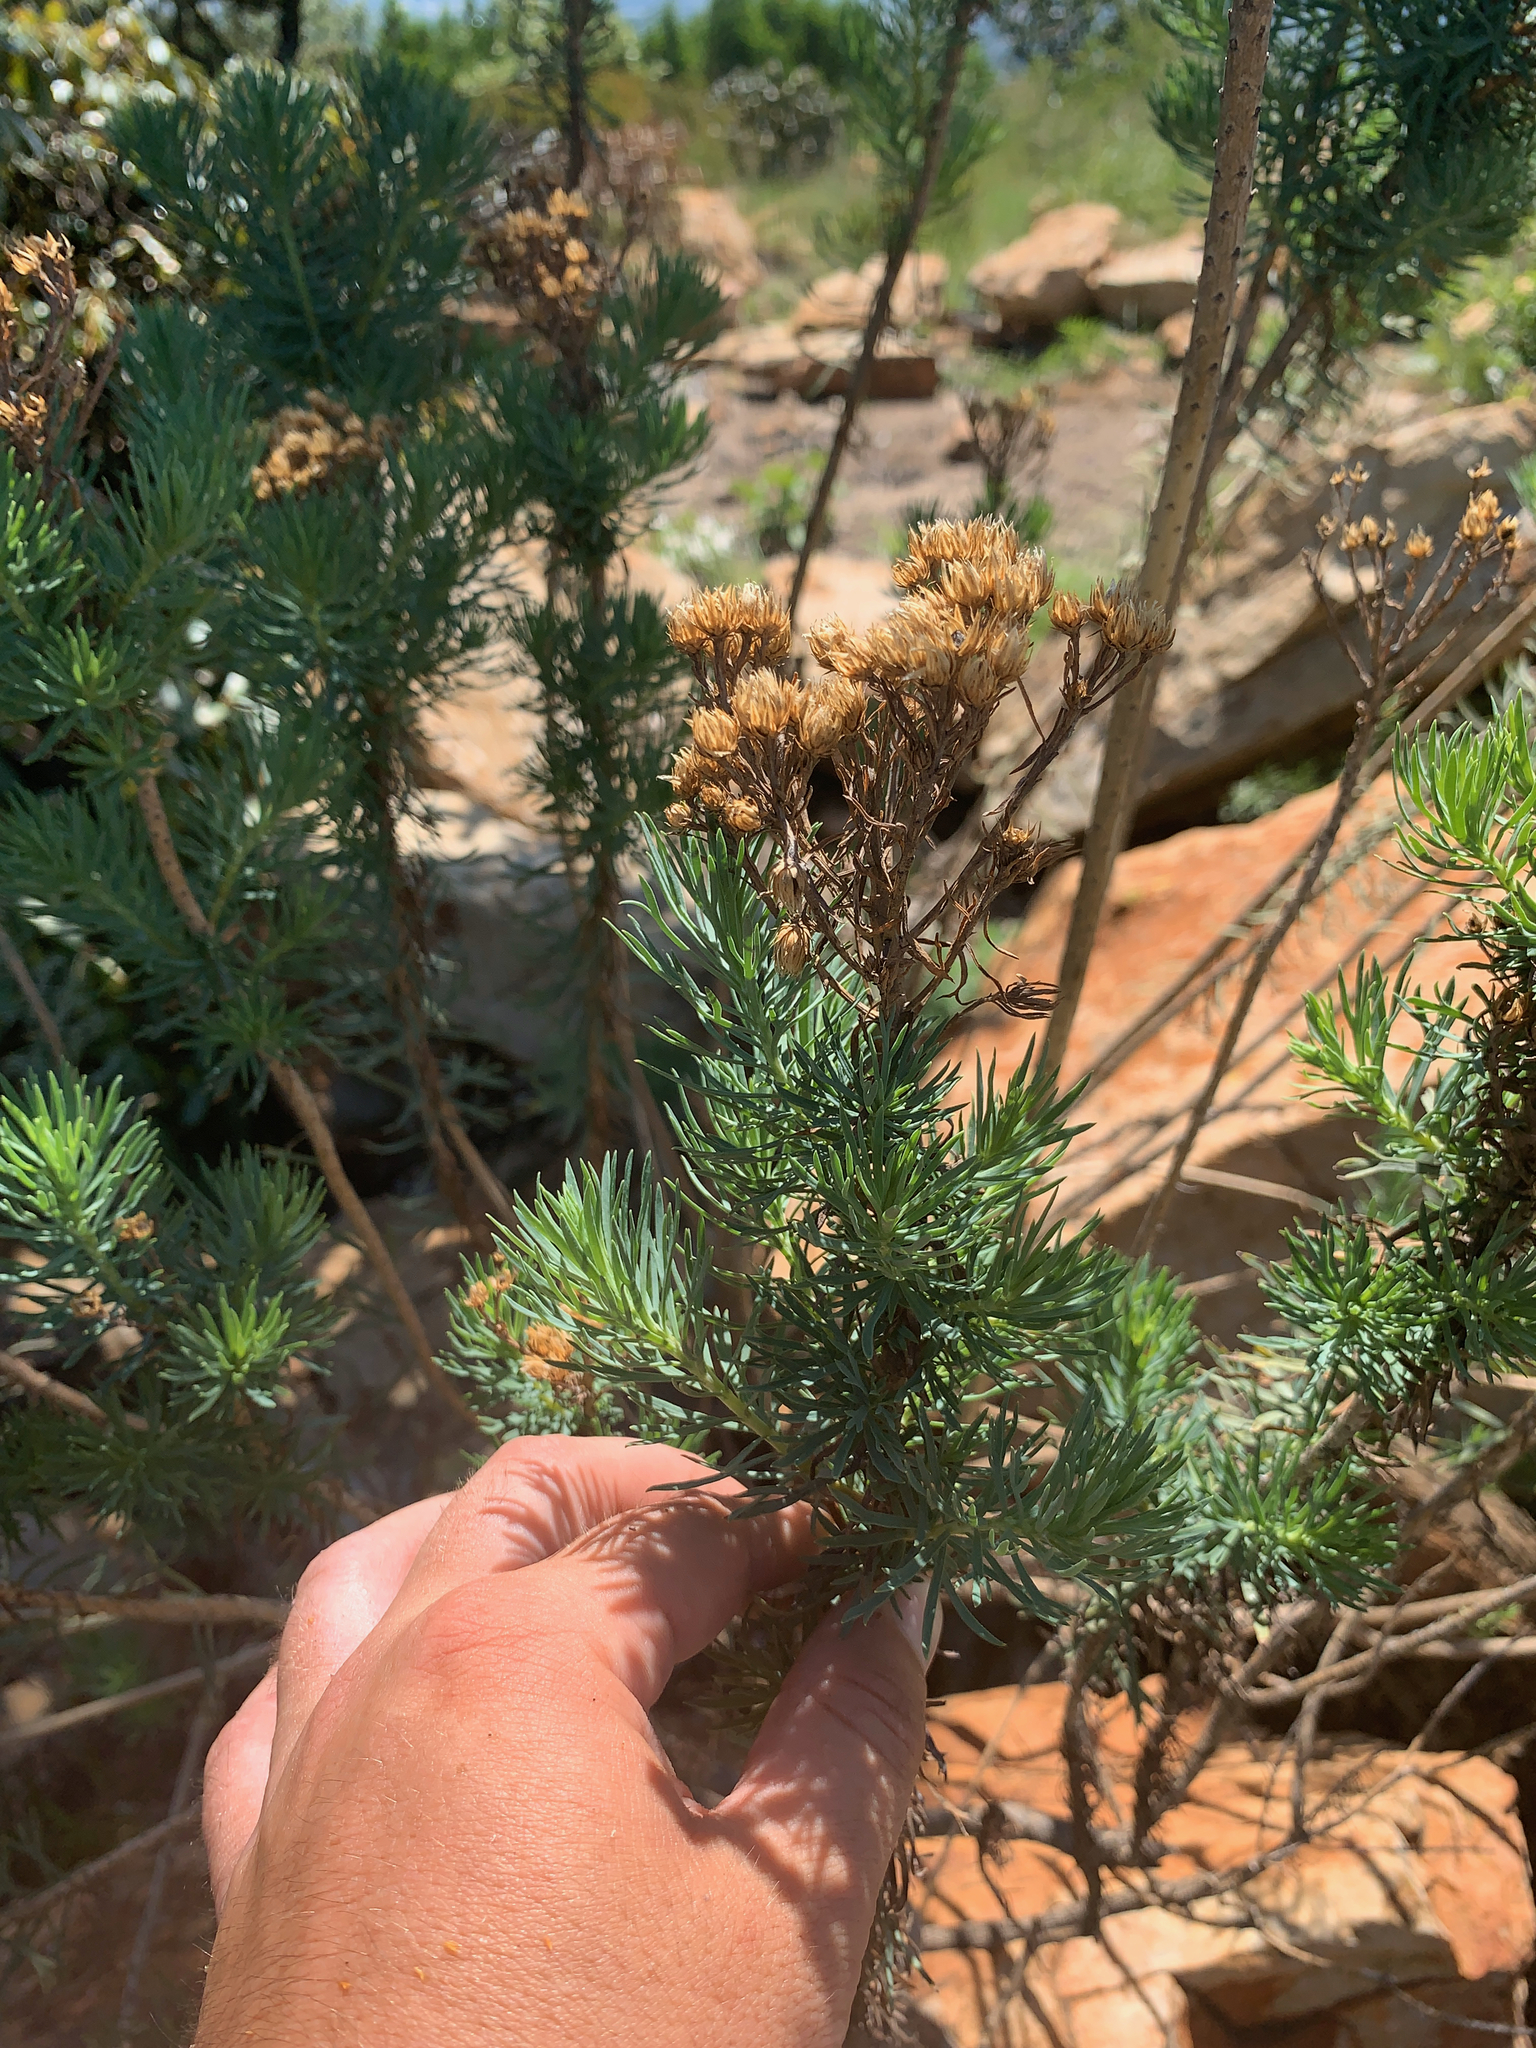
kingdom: Plantae
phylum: Tracheophyta
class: Magnoliopsida
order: Asterales
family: Asteraceae
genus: Phymaspermum
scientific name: Phymaspermum athanasioides
